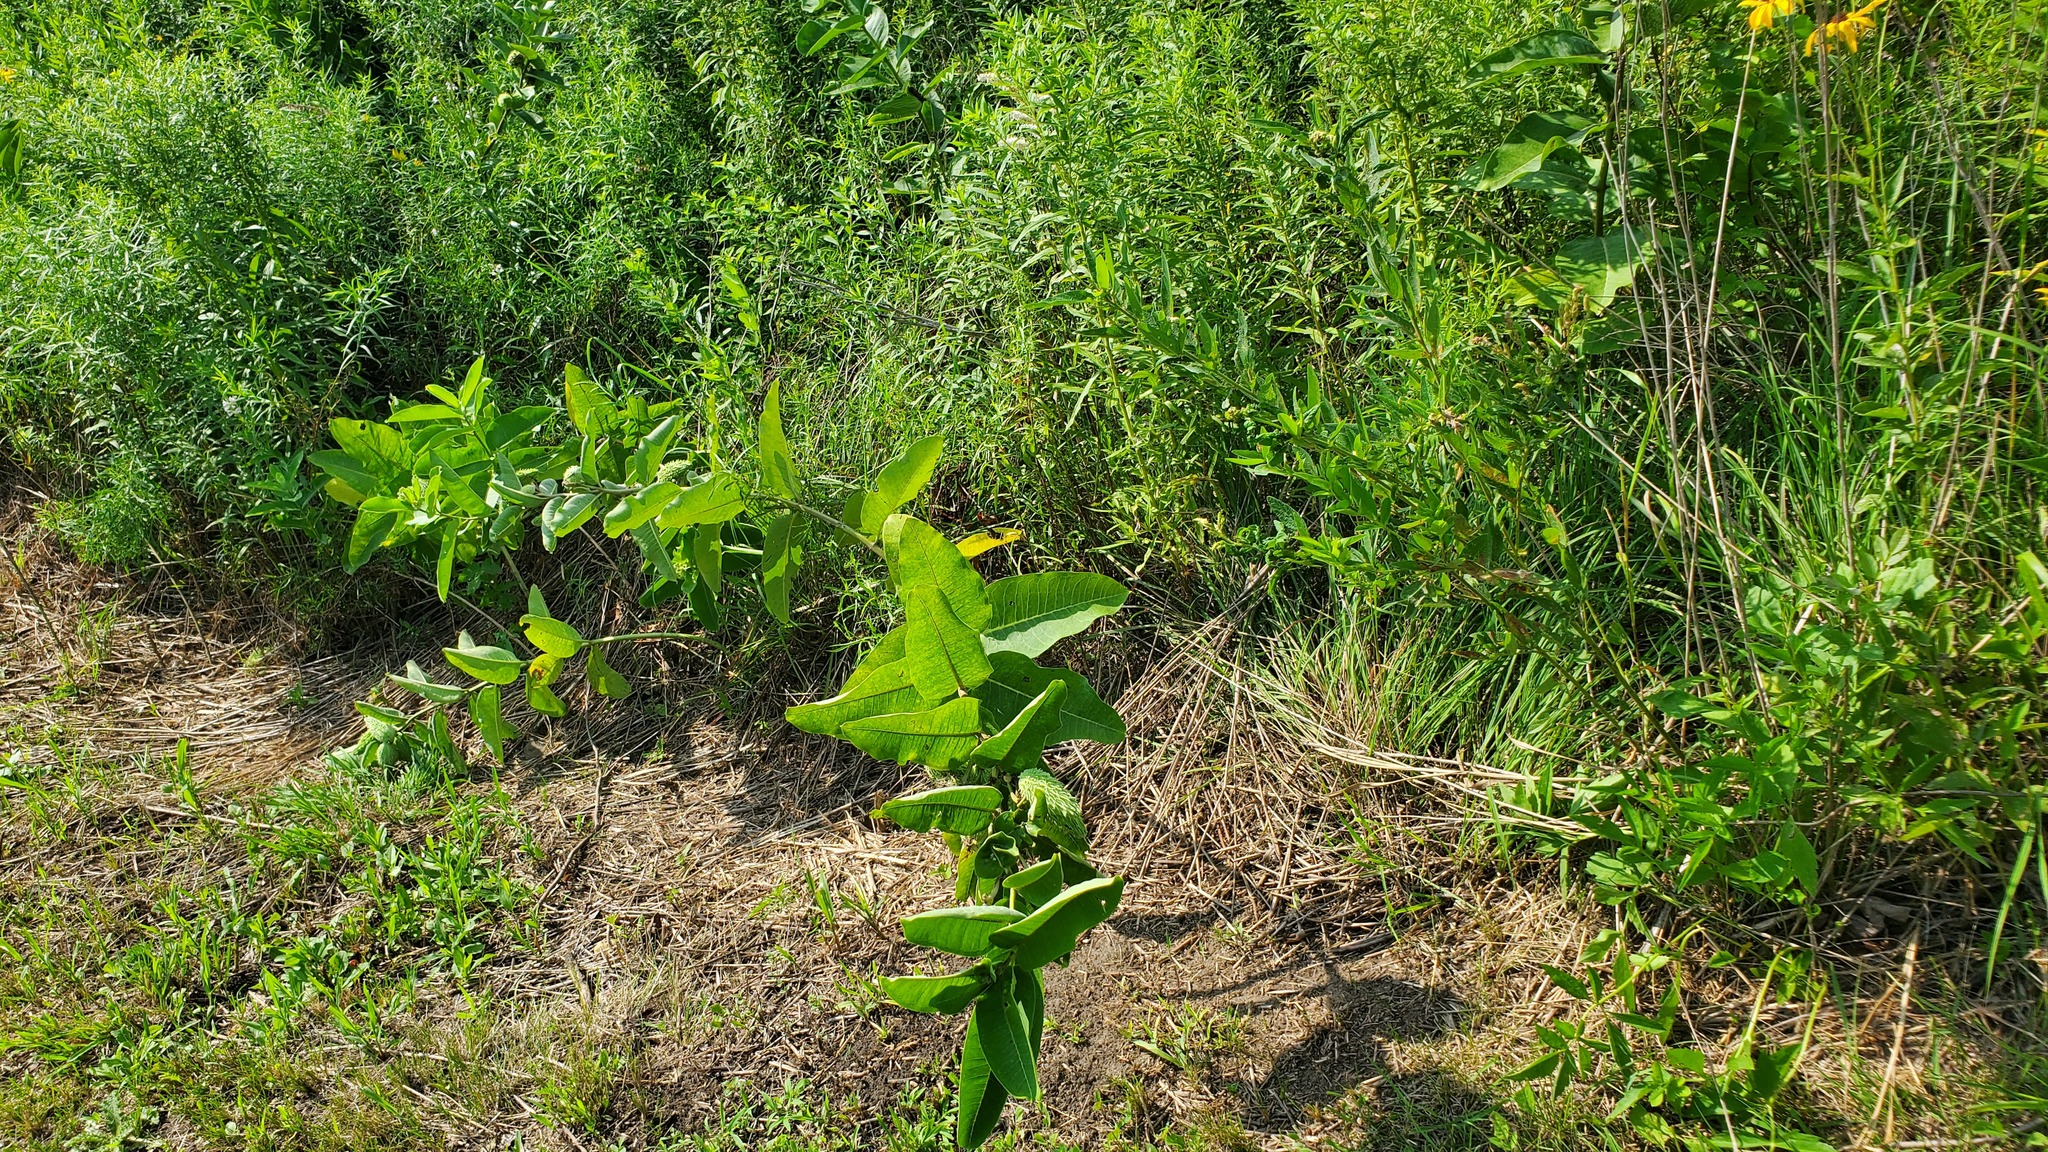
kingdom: Plantae
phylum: Tracheophyta
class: Magnoliopsida
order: Gentianales
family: Apocynaceae
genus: Asclepias
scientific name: Asclepias syriaca
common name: Common milkweed
